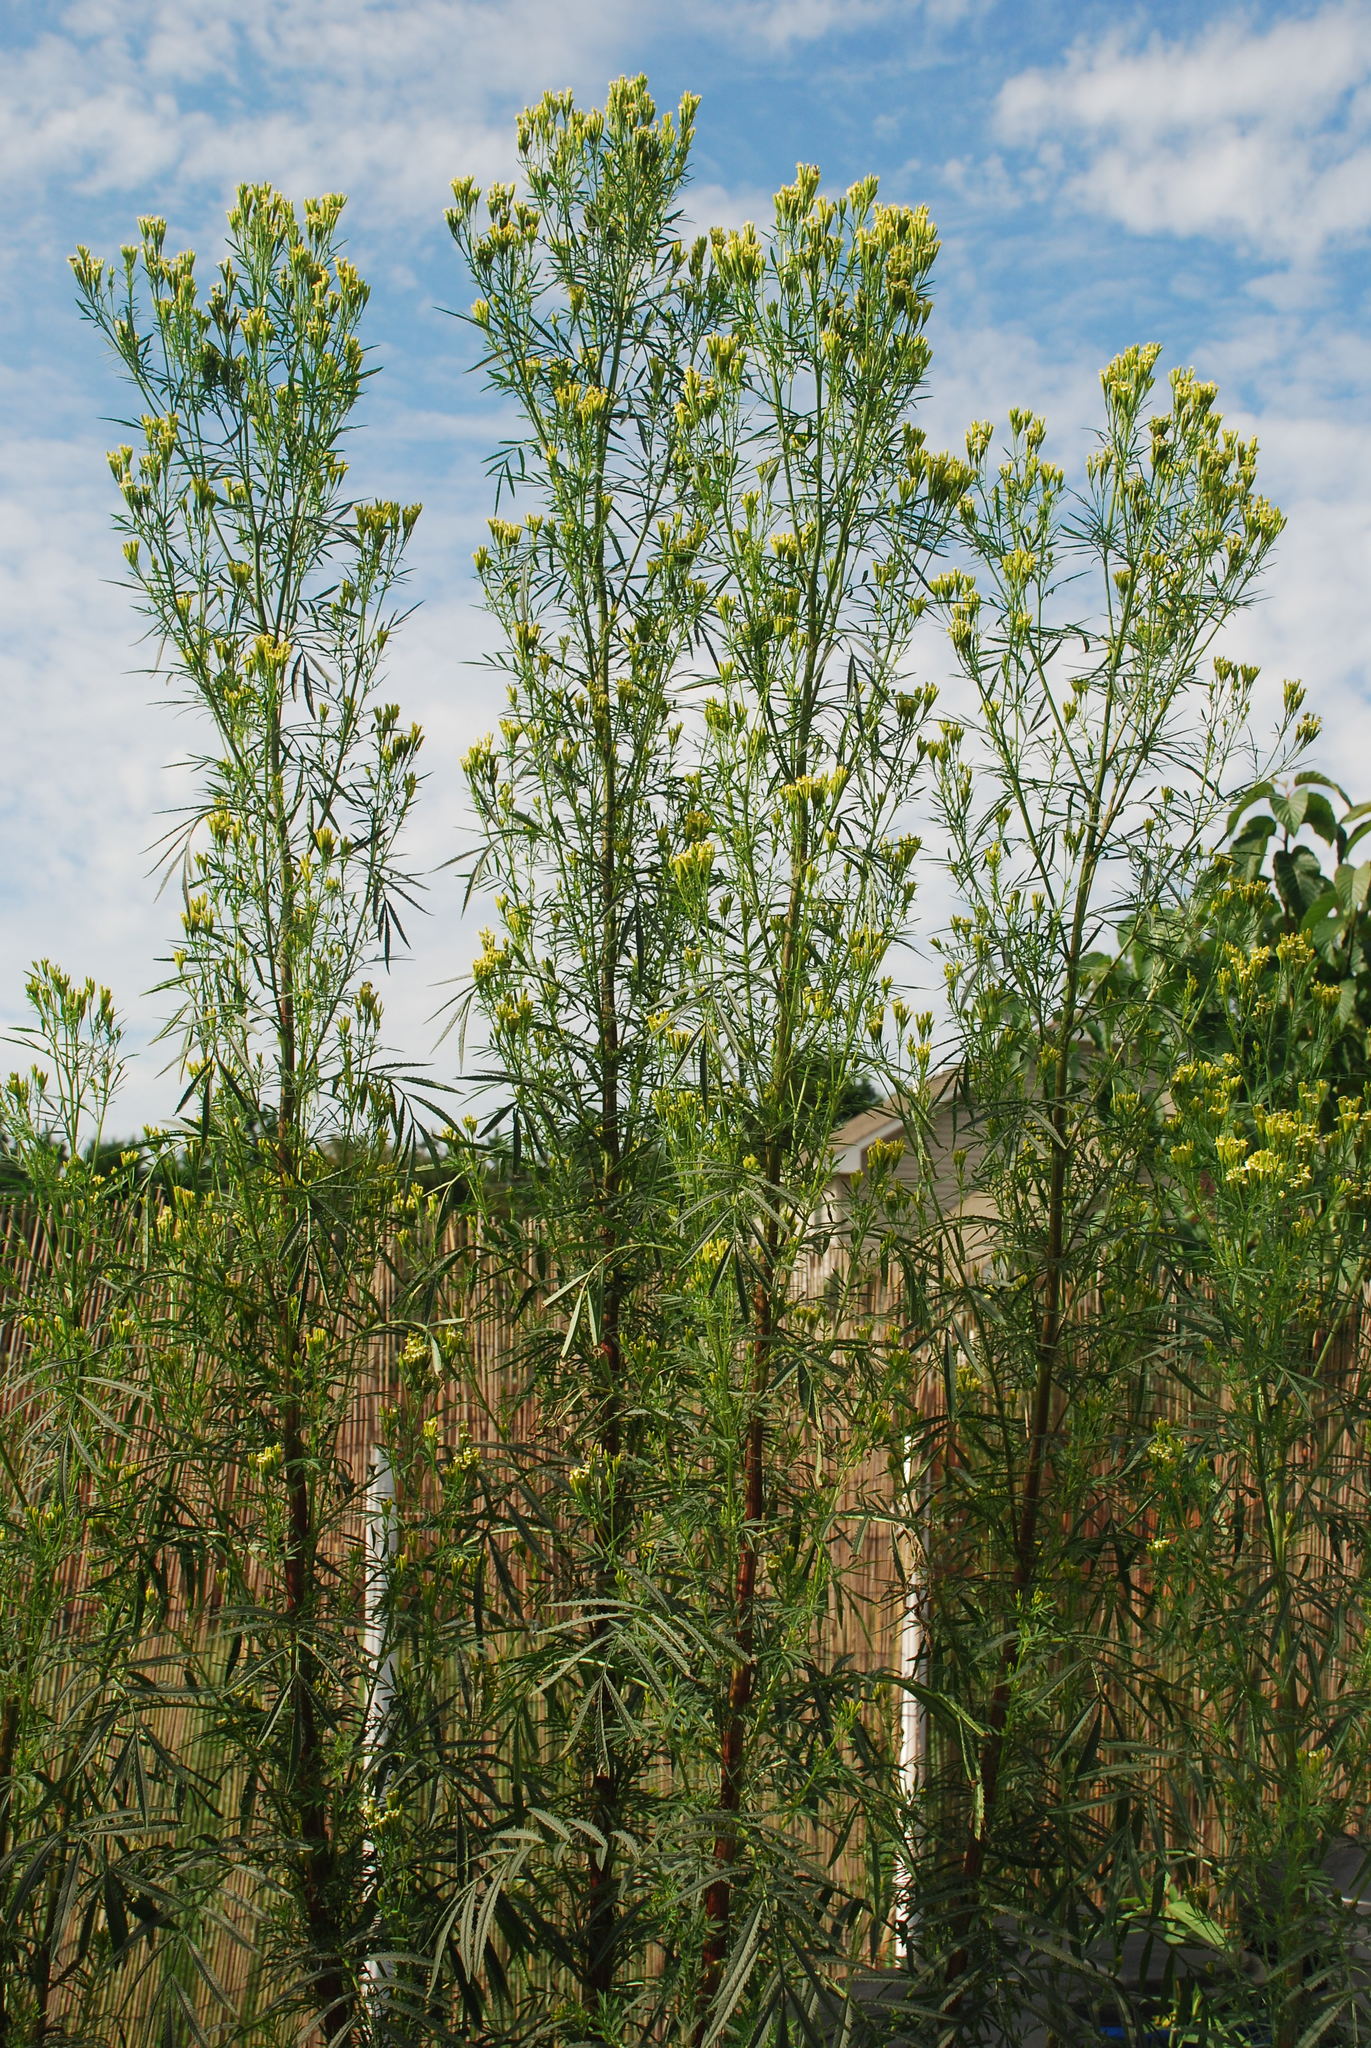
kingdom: Plantae
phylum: Tracheophyta
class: Magnoliopsida
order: Asterales
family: Asteraceae
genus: Tagetes
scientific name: Tagetes minuta
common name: Muster john henry
